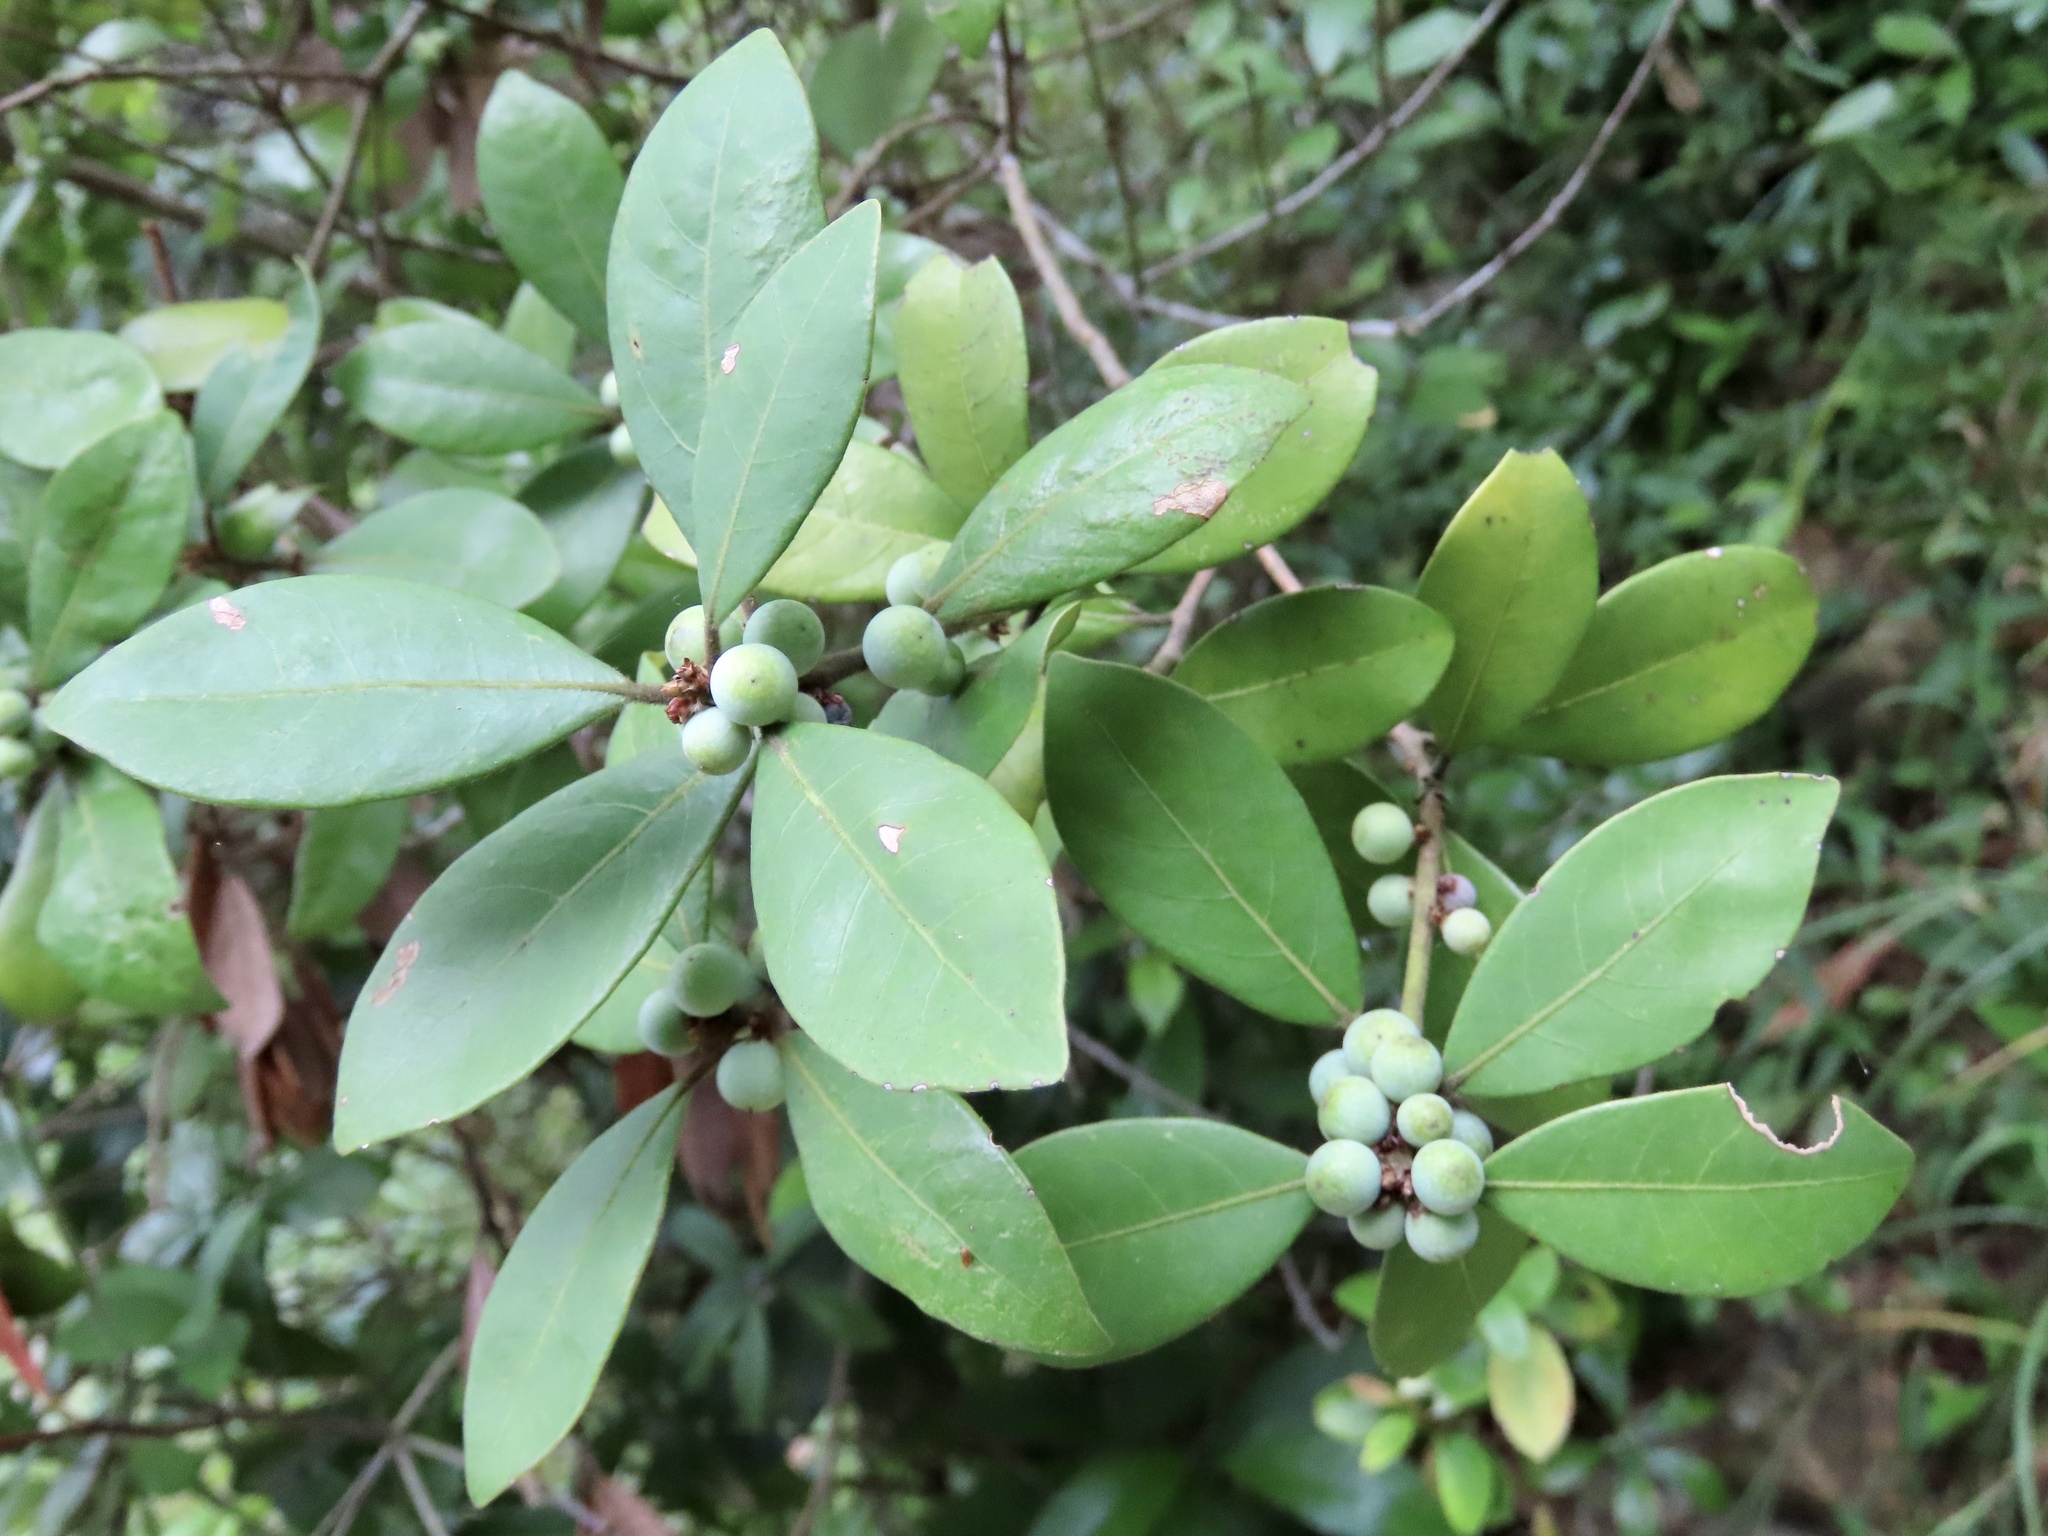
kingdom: Plantae
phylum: Tracheophyta
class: Magnoliopsida
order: Laurales
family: Lauraceae
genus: Litsea
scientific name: Litsea rotundifolia
